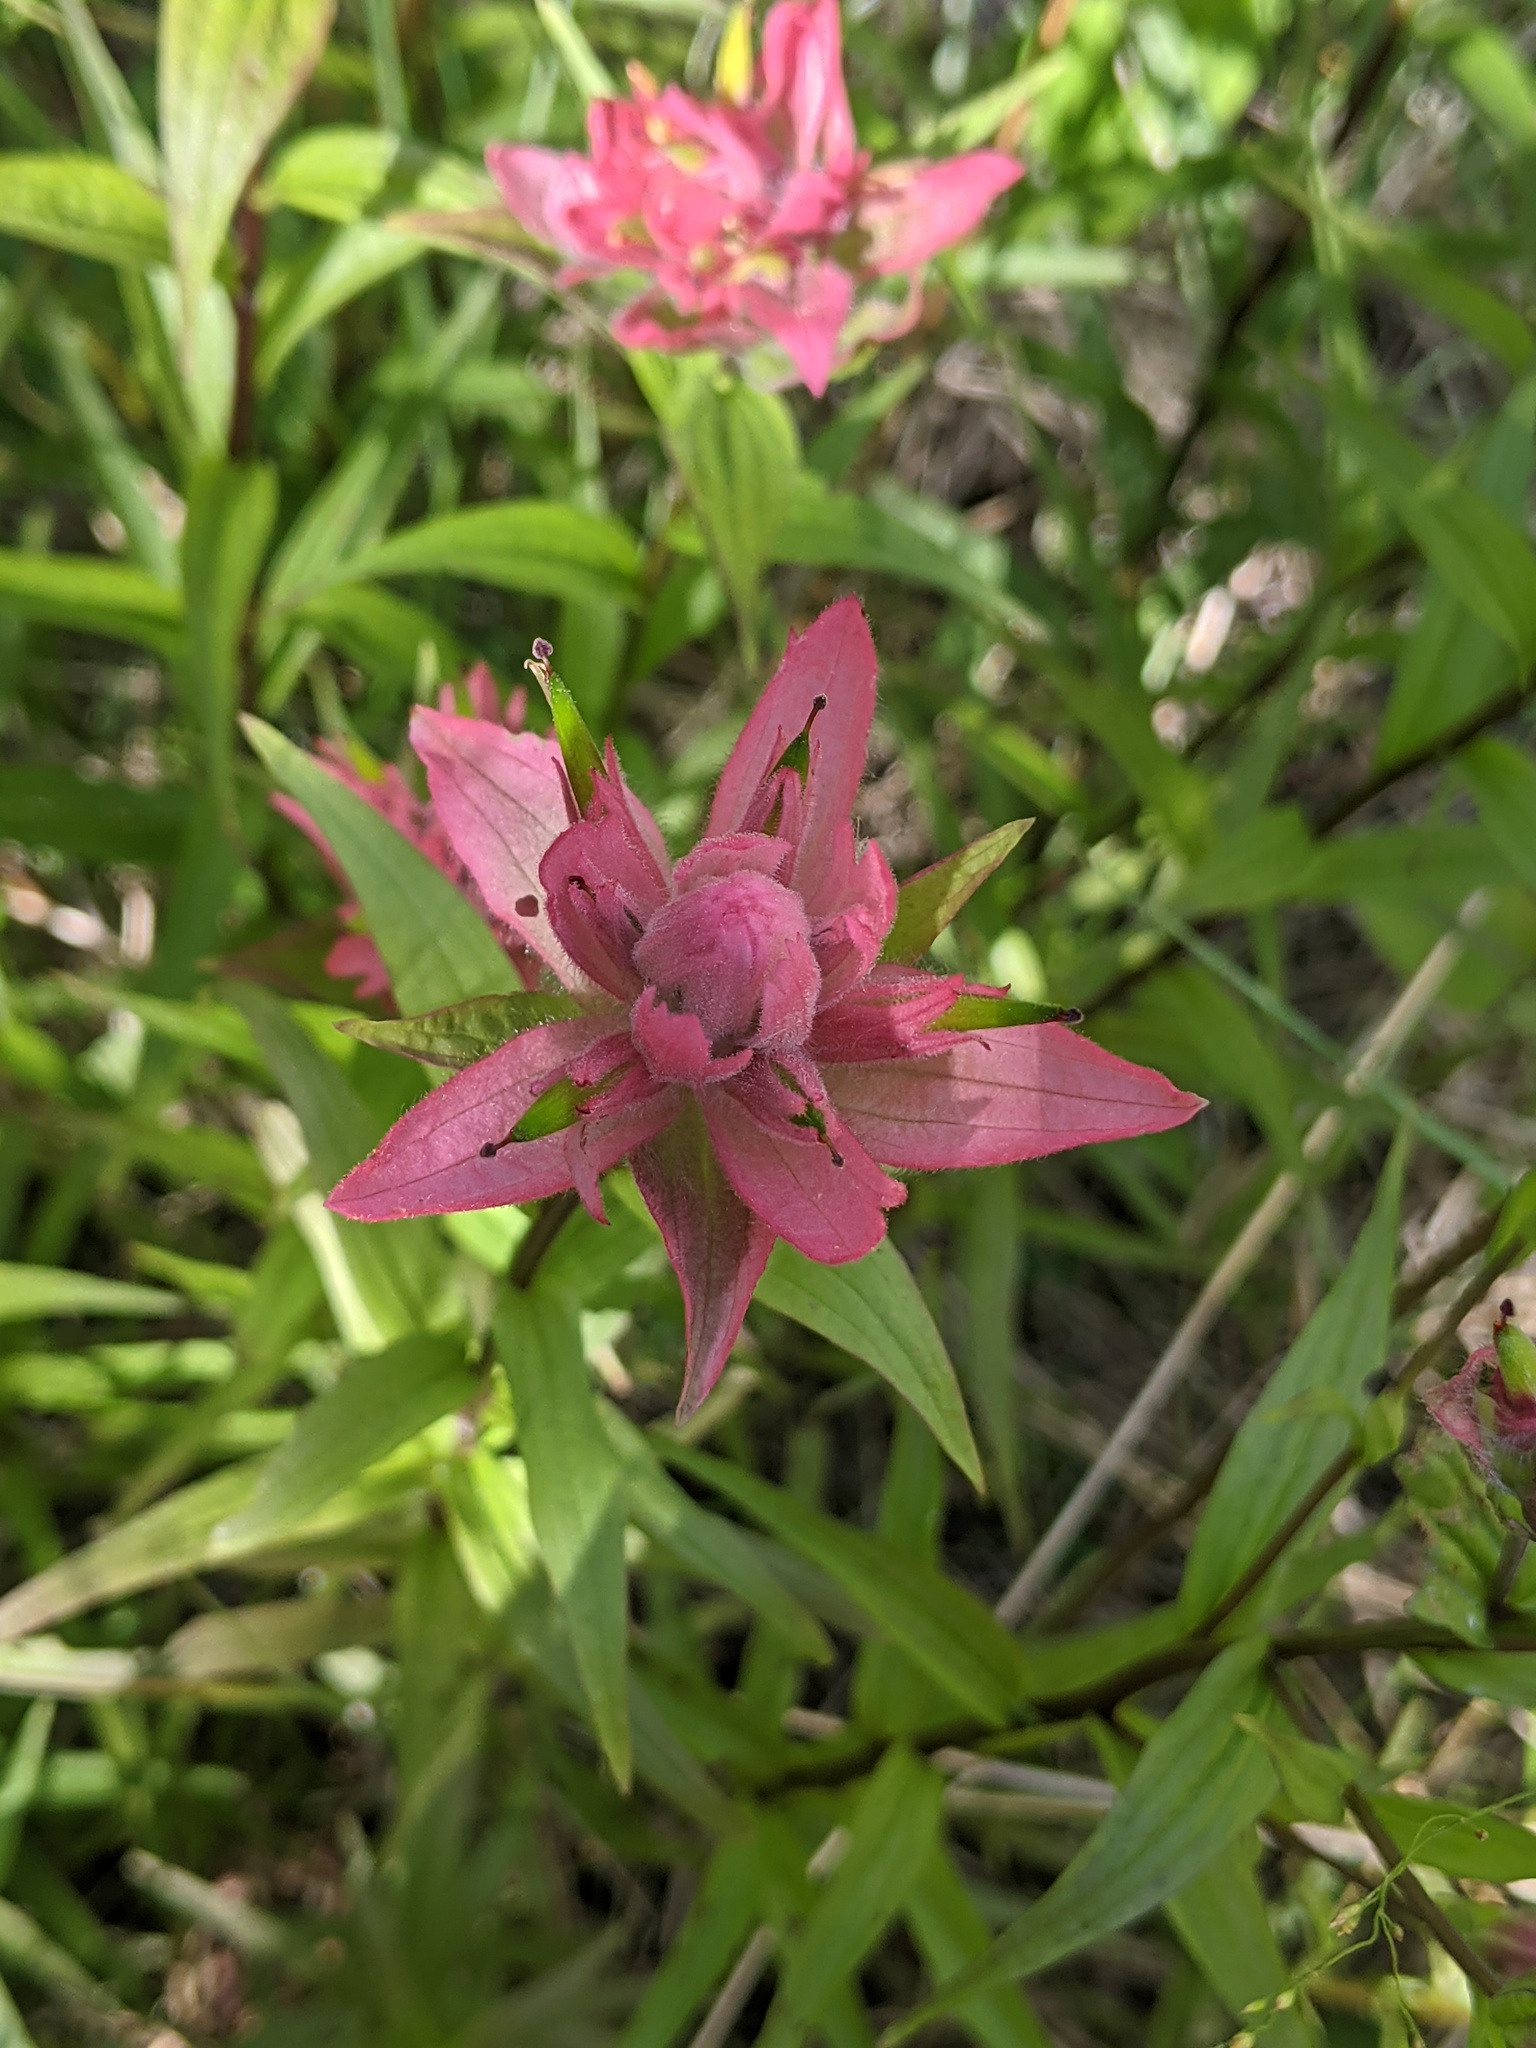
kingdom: Plantae
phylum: Tracheophyta
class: Magnoliopsida
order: Lamiales
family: Orobanchaceae
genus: Castilleja
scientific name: Castilleja miniata
